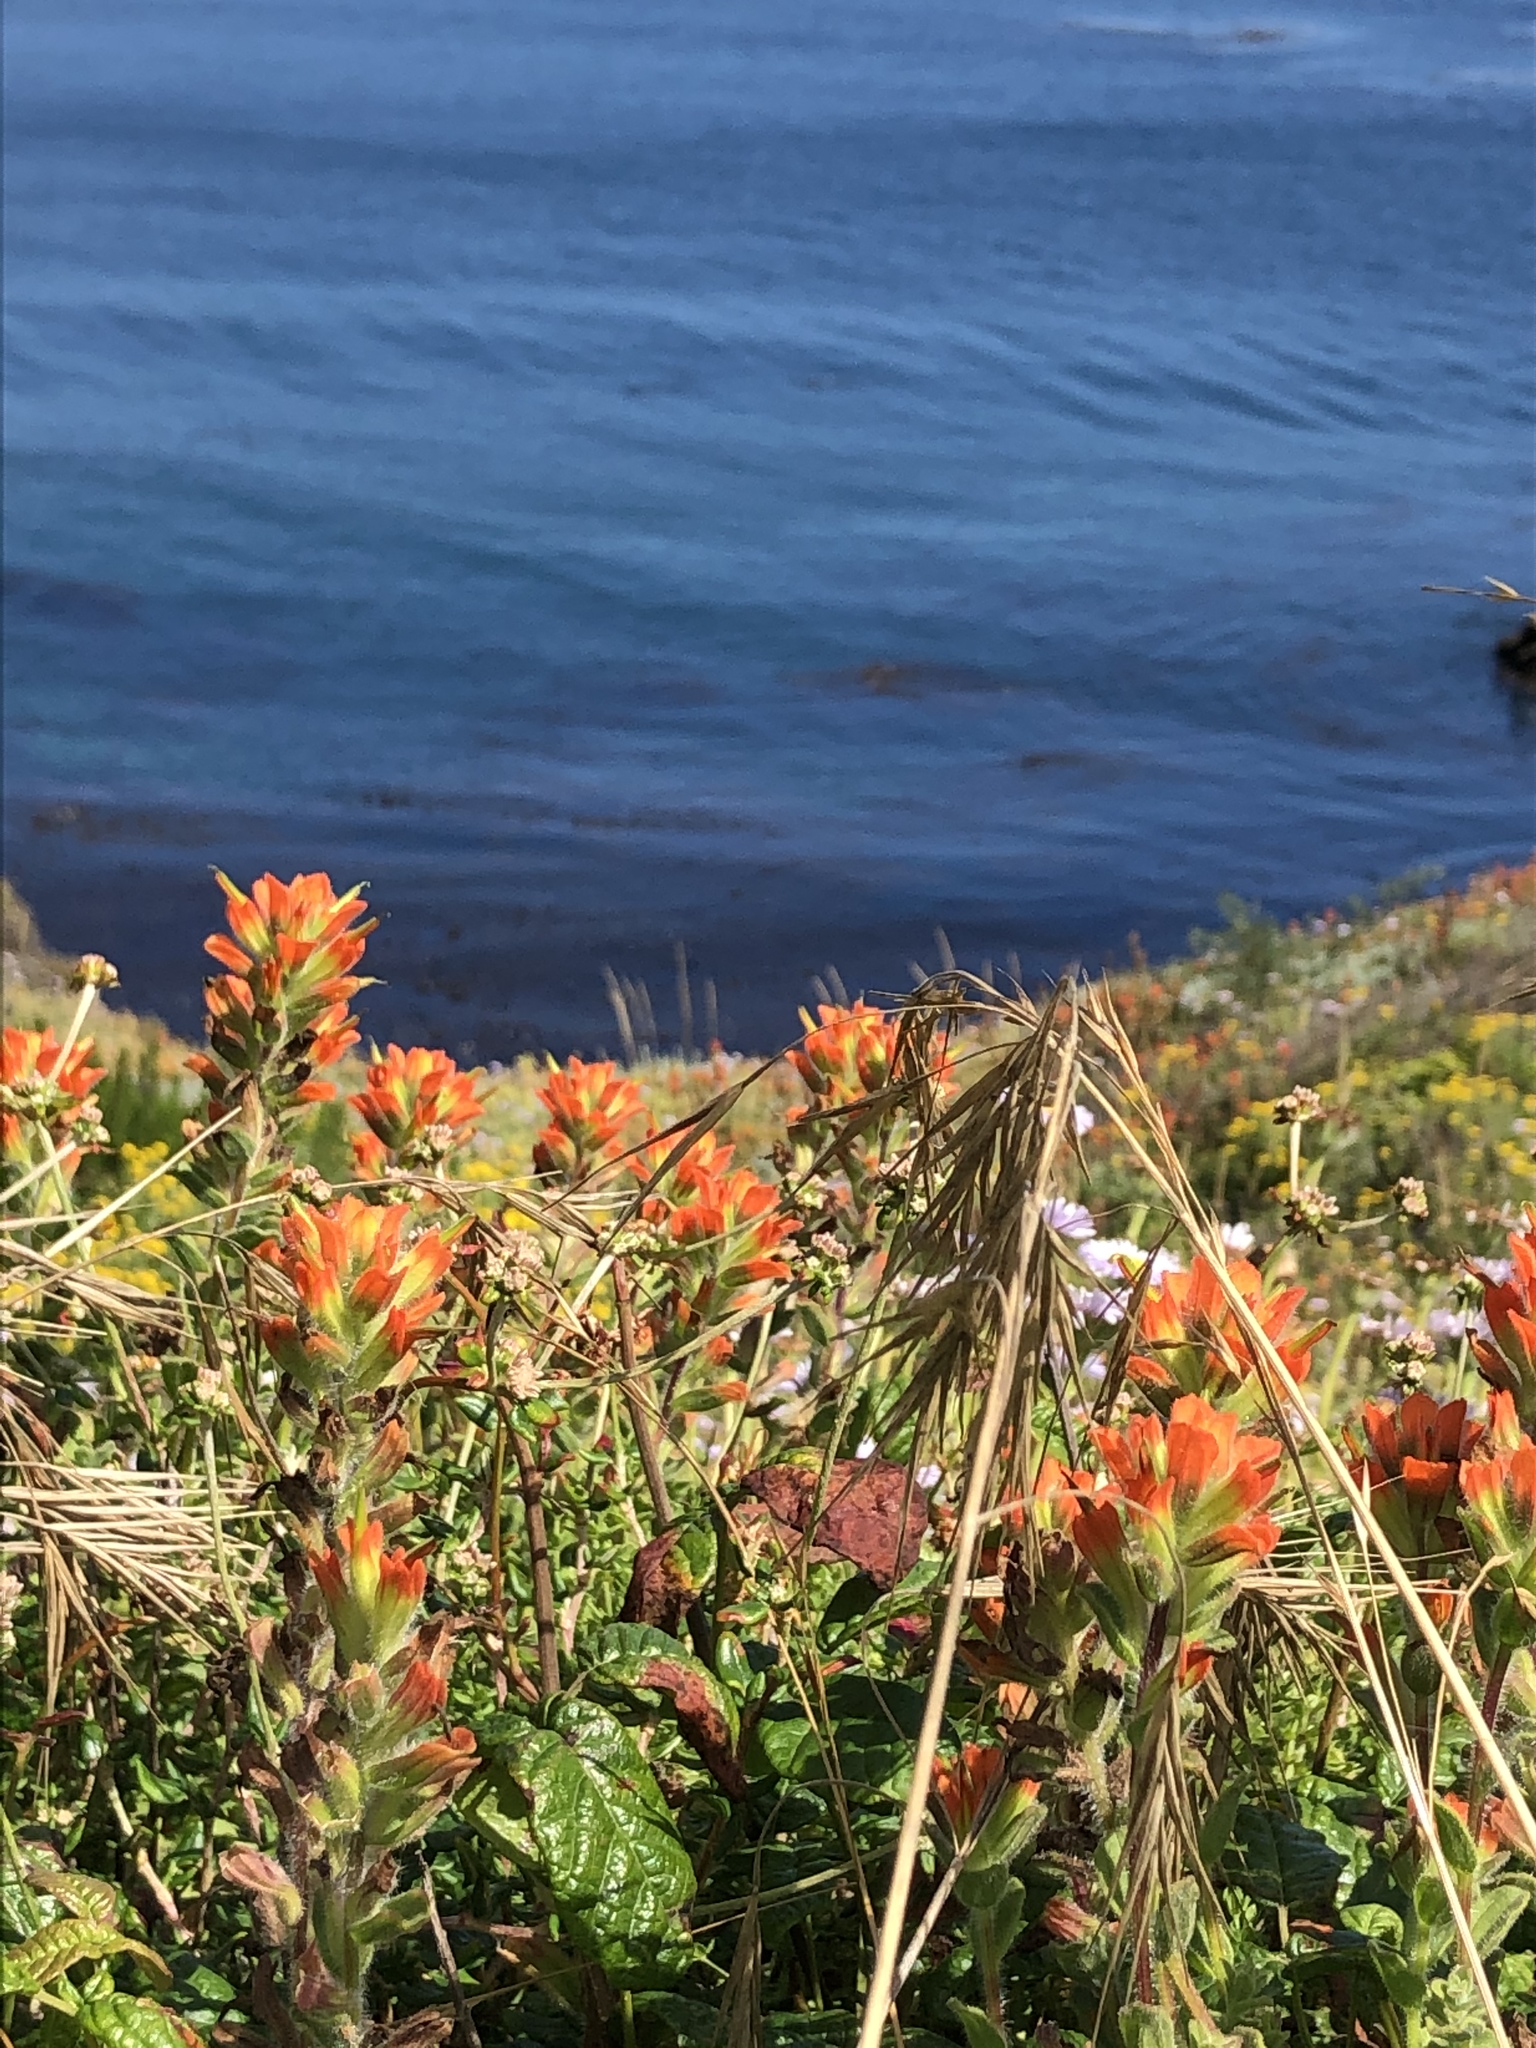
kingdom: Plantae
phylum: Tracheophyta
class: Magnoliopsida
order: Lamiales
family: Orobanchaceae
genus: Castilleja
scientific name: Castilleja latifolia
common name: Monterey indian paintbrush
